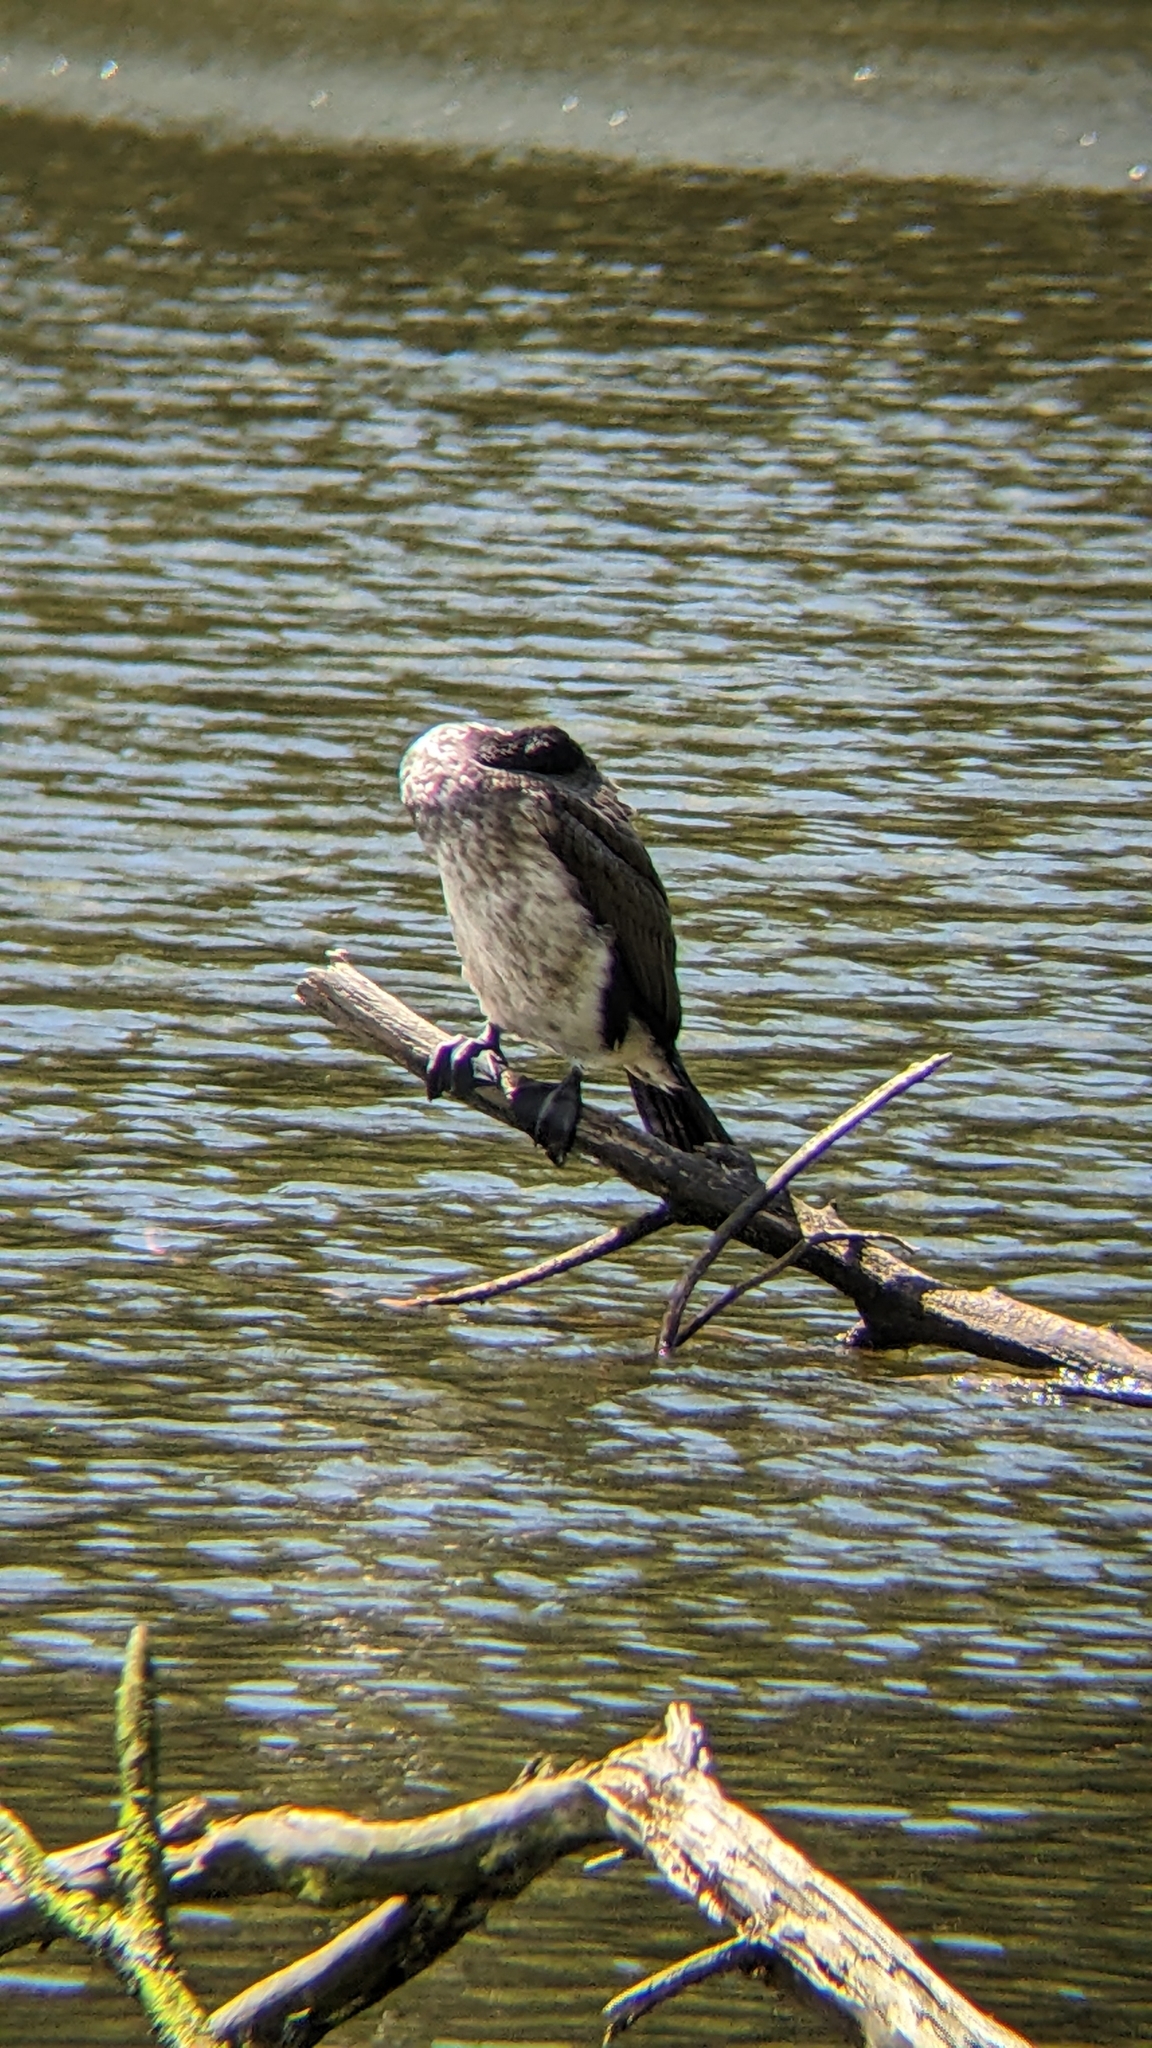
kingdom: Animalia
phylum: Chordata
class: Aves
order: Suliformes
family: Phalacrocoracidae
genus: Phalacrocorax
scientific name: Phalacrocorax varius
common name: Pied cormorant
